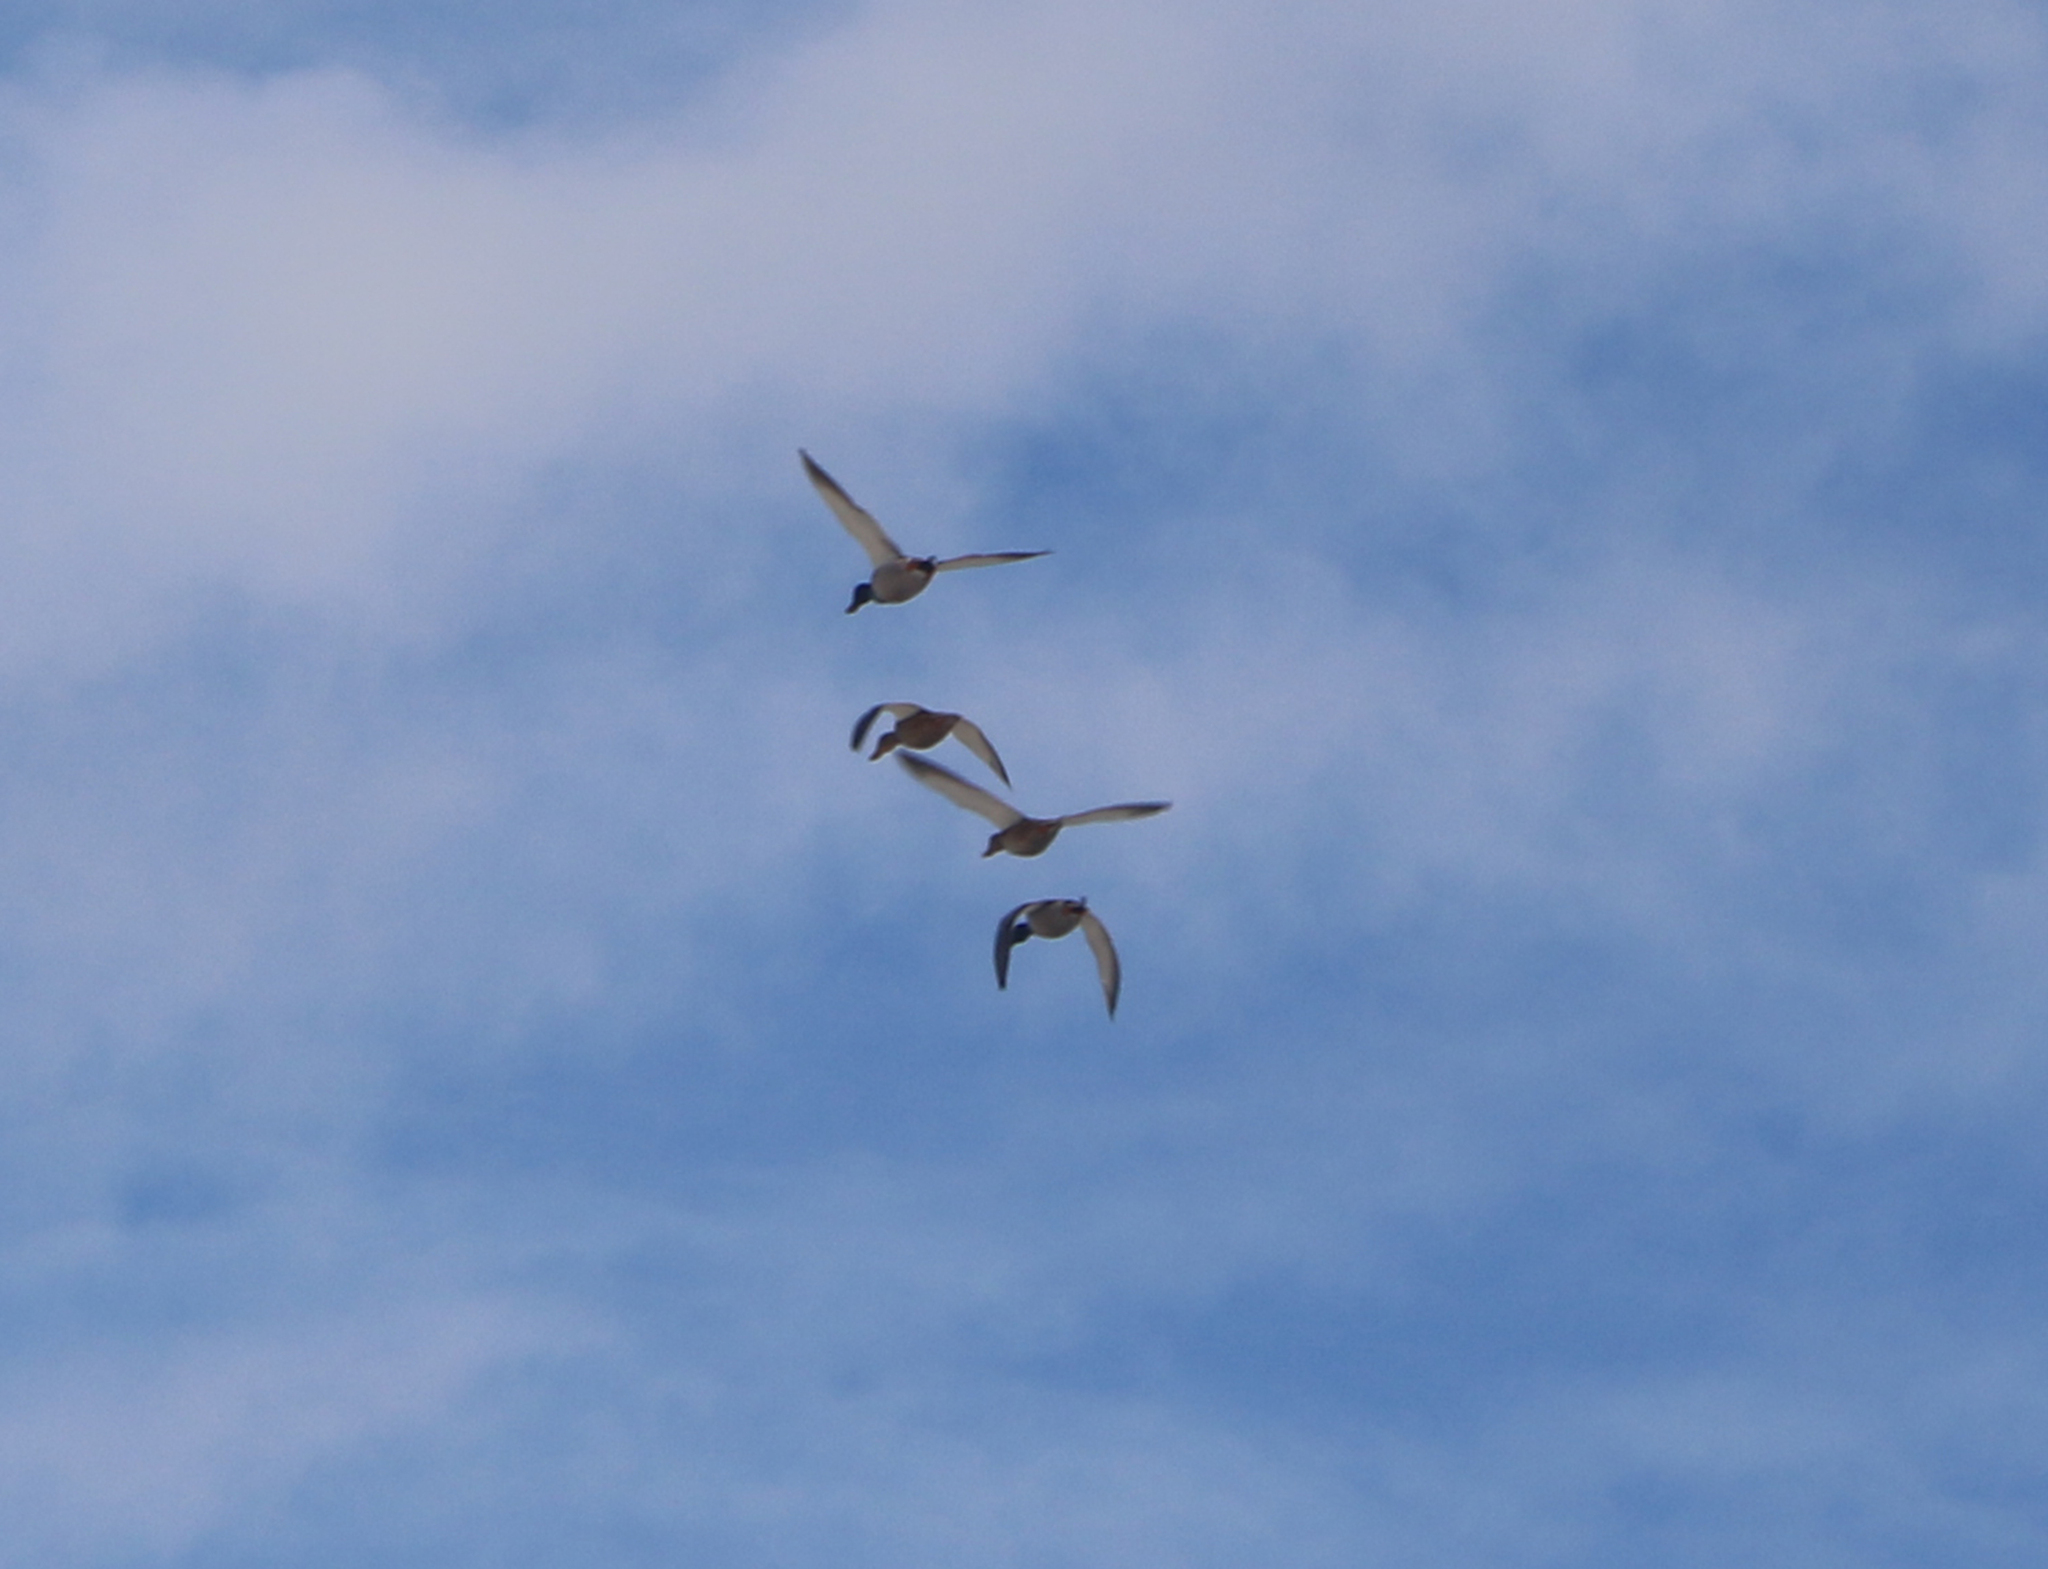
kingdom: Animalia
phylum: Chordata
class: Aves
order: Anseriformes
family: Anatidae
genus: Anas
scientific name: Anas platyrhynchos
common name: Mallard
